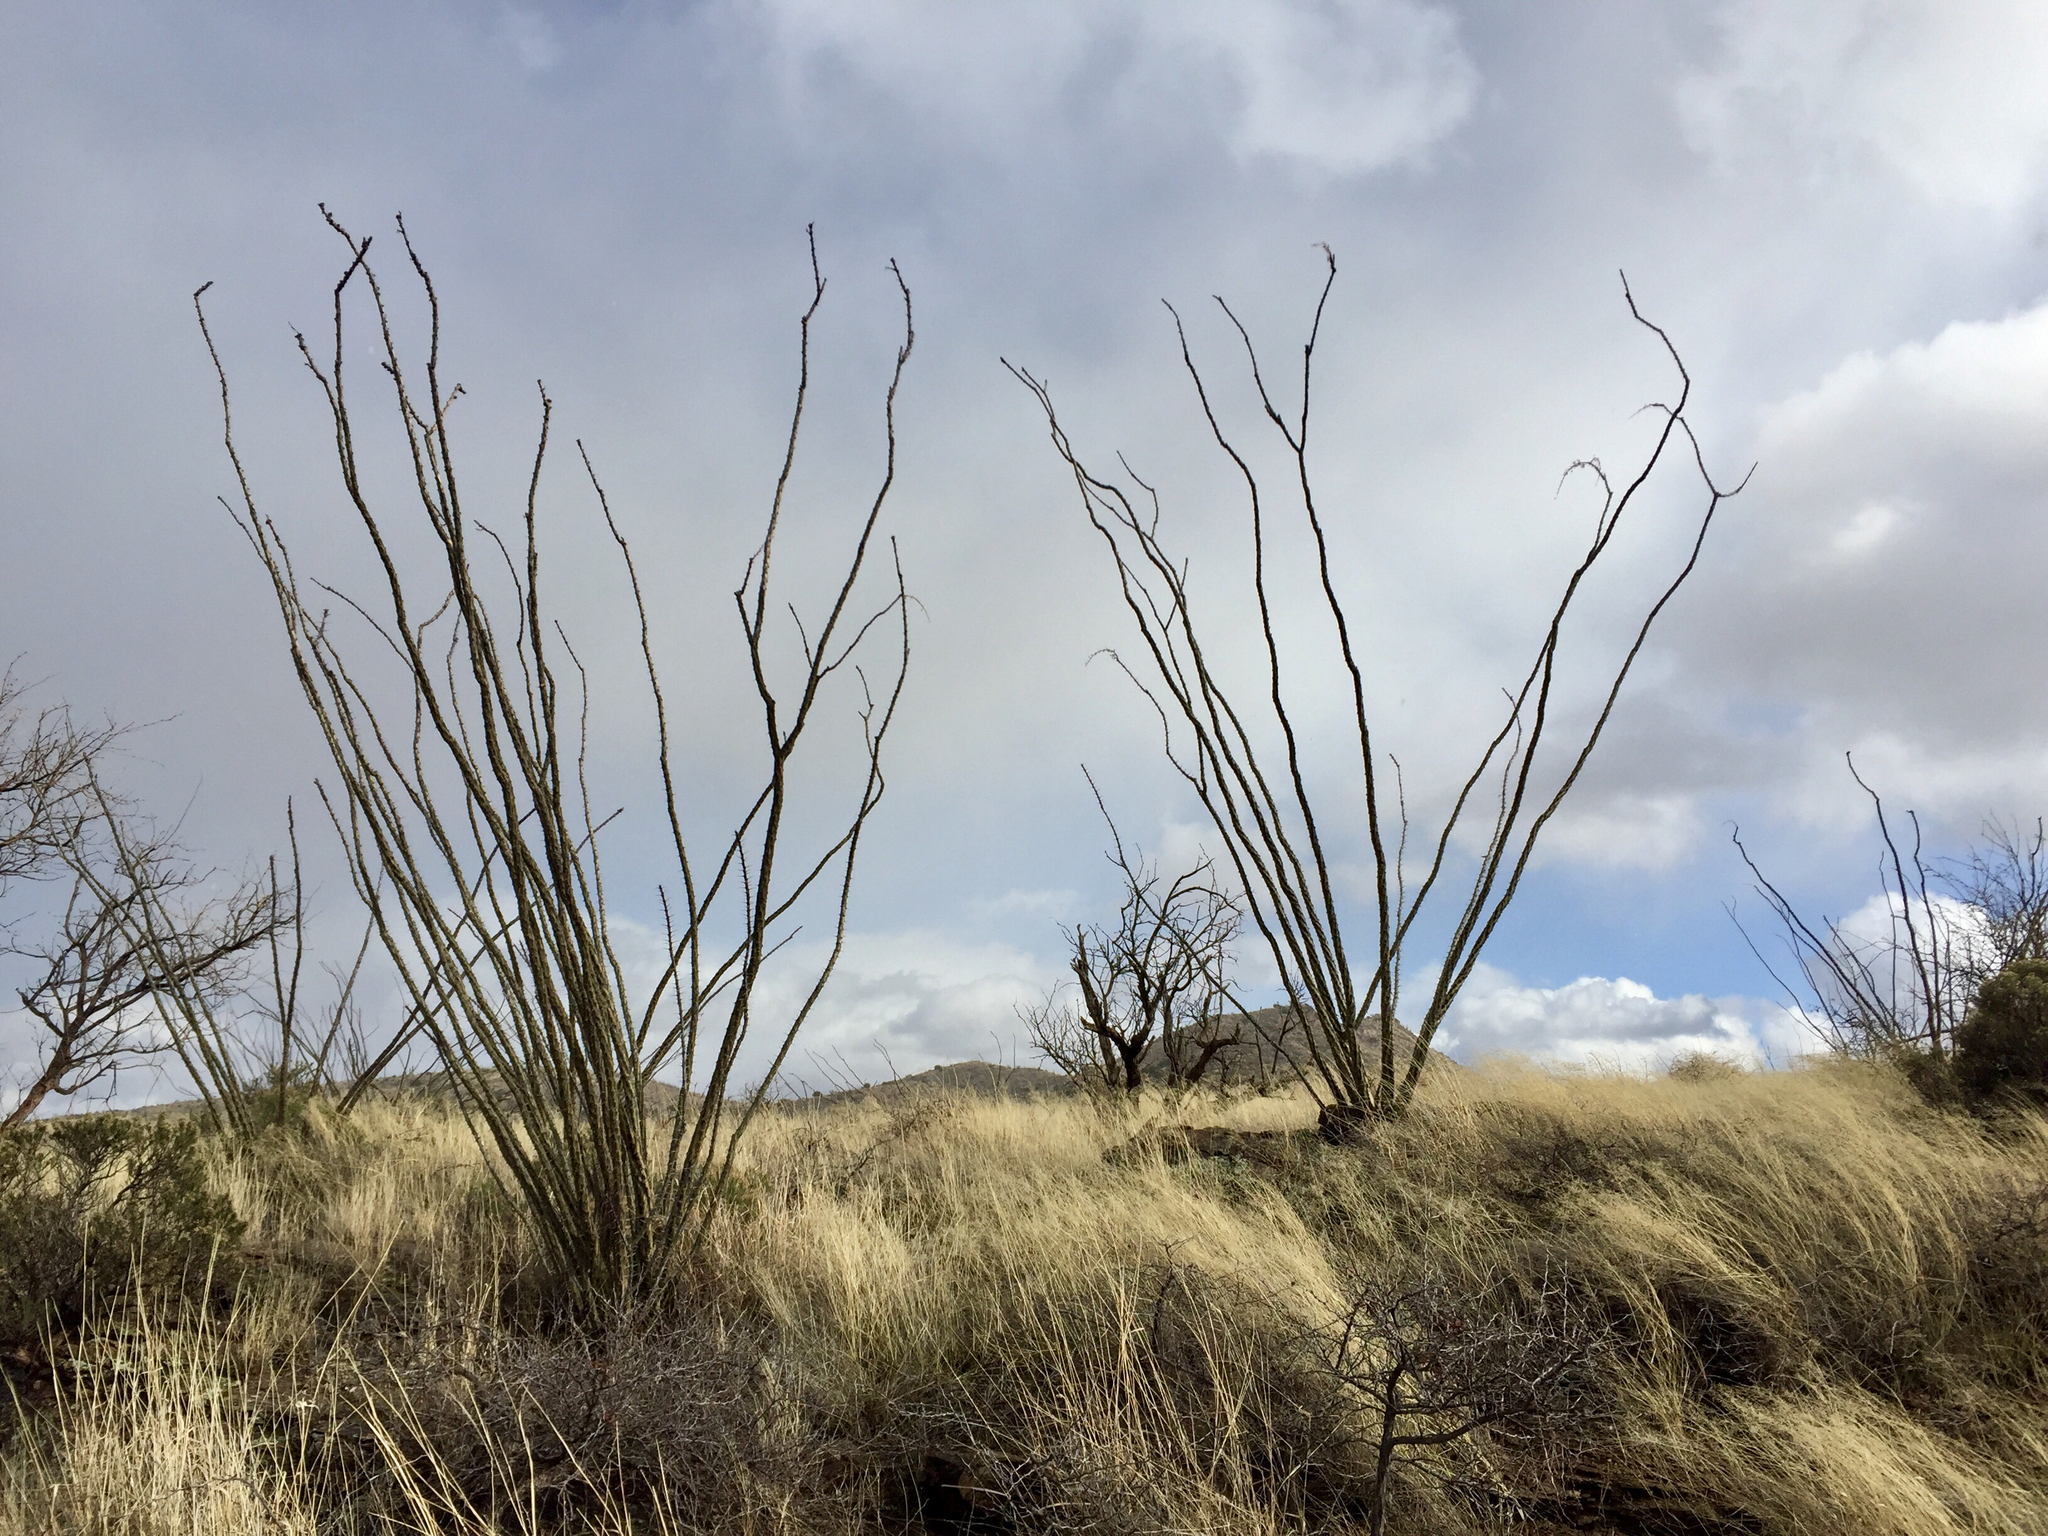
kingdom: Plantae
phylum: Tracheophyta
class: Magnoliopsida
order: Ericales
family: Fouquieriaceae
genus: Fouquieria
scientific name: Fouquieria splendens
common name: Vine-cactus
